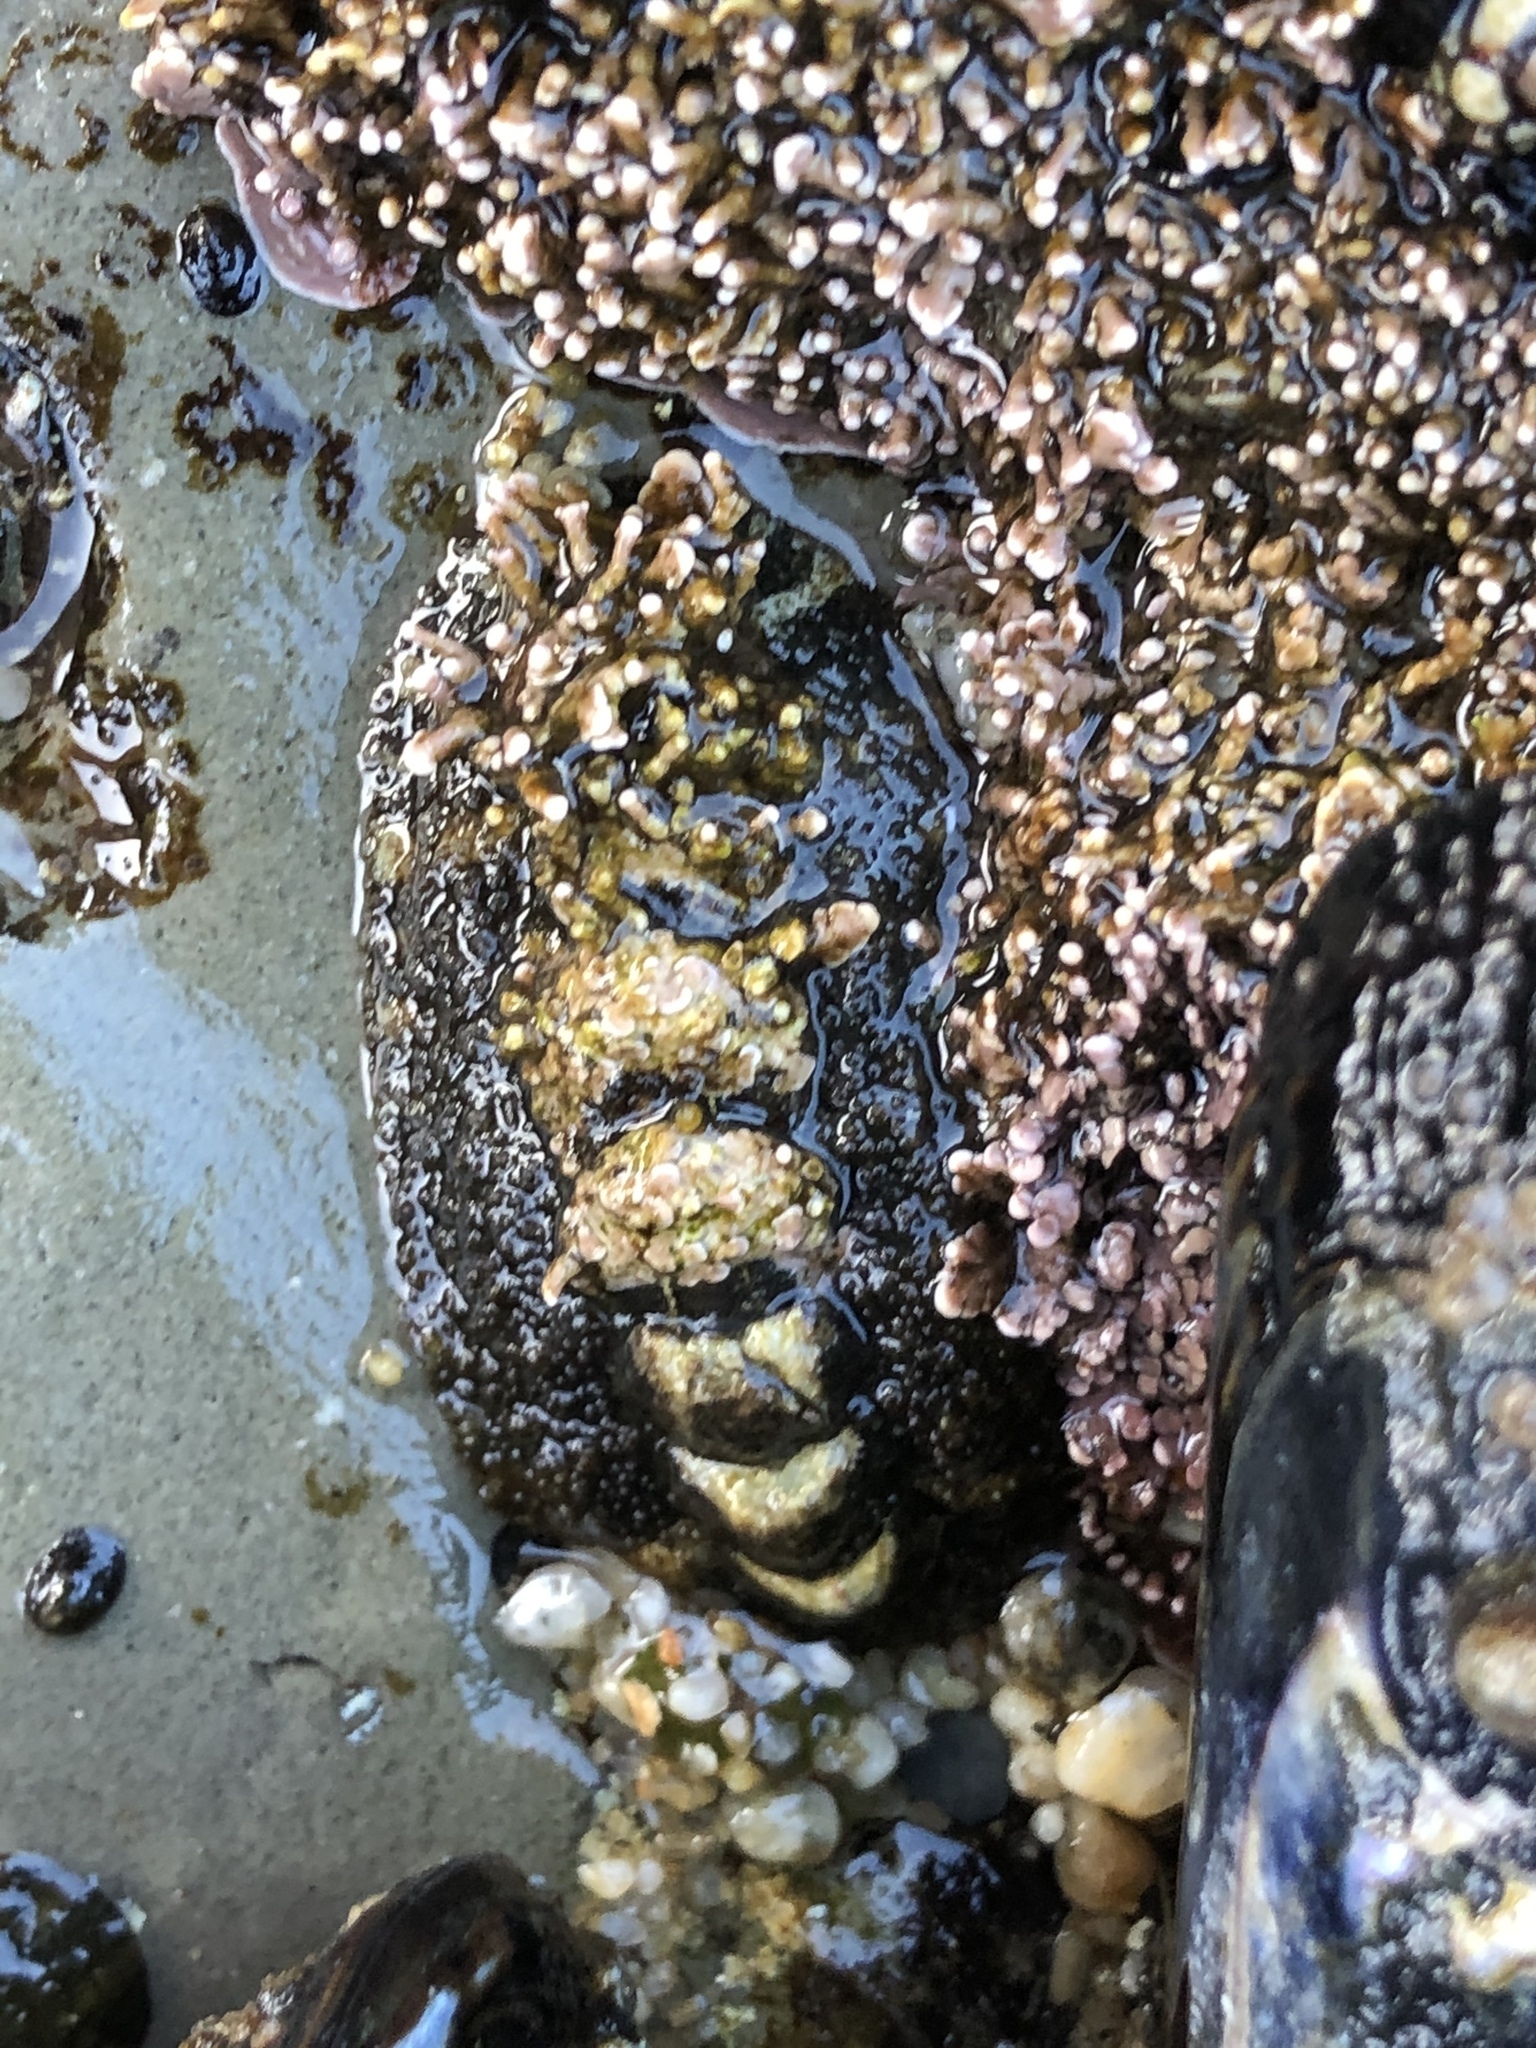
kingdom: Animalia
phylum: Mollusca
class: Polyplacophora
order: Chitonida
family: Tonicellidae
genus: Nuttallina
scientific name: Nuttallina californica
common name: California nuttall chiton
